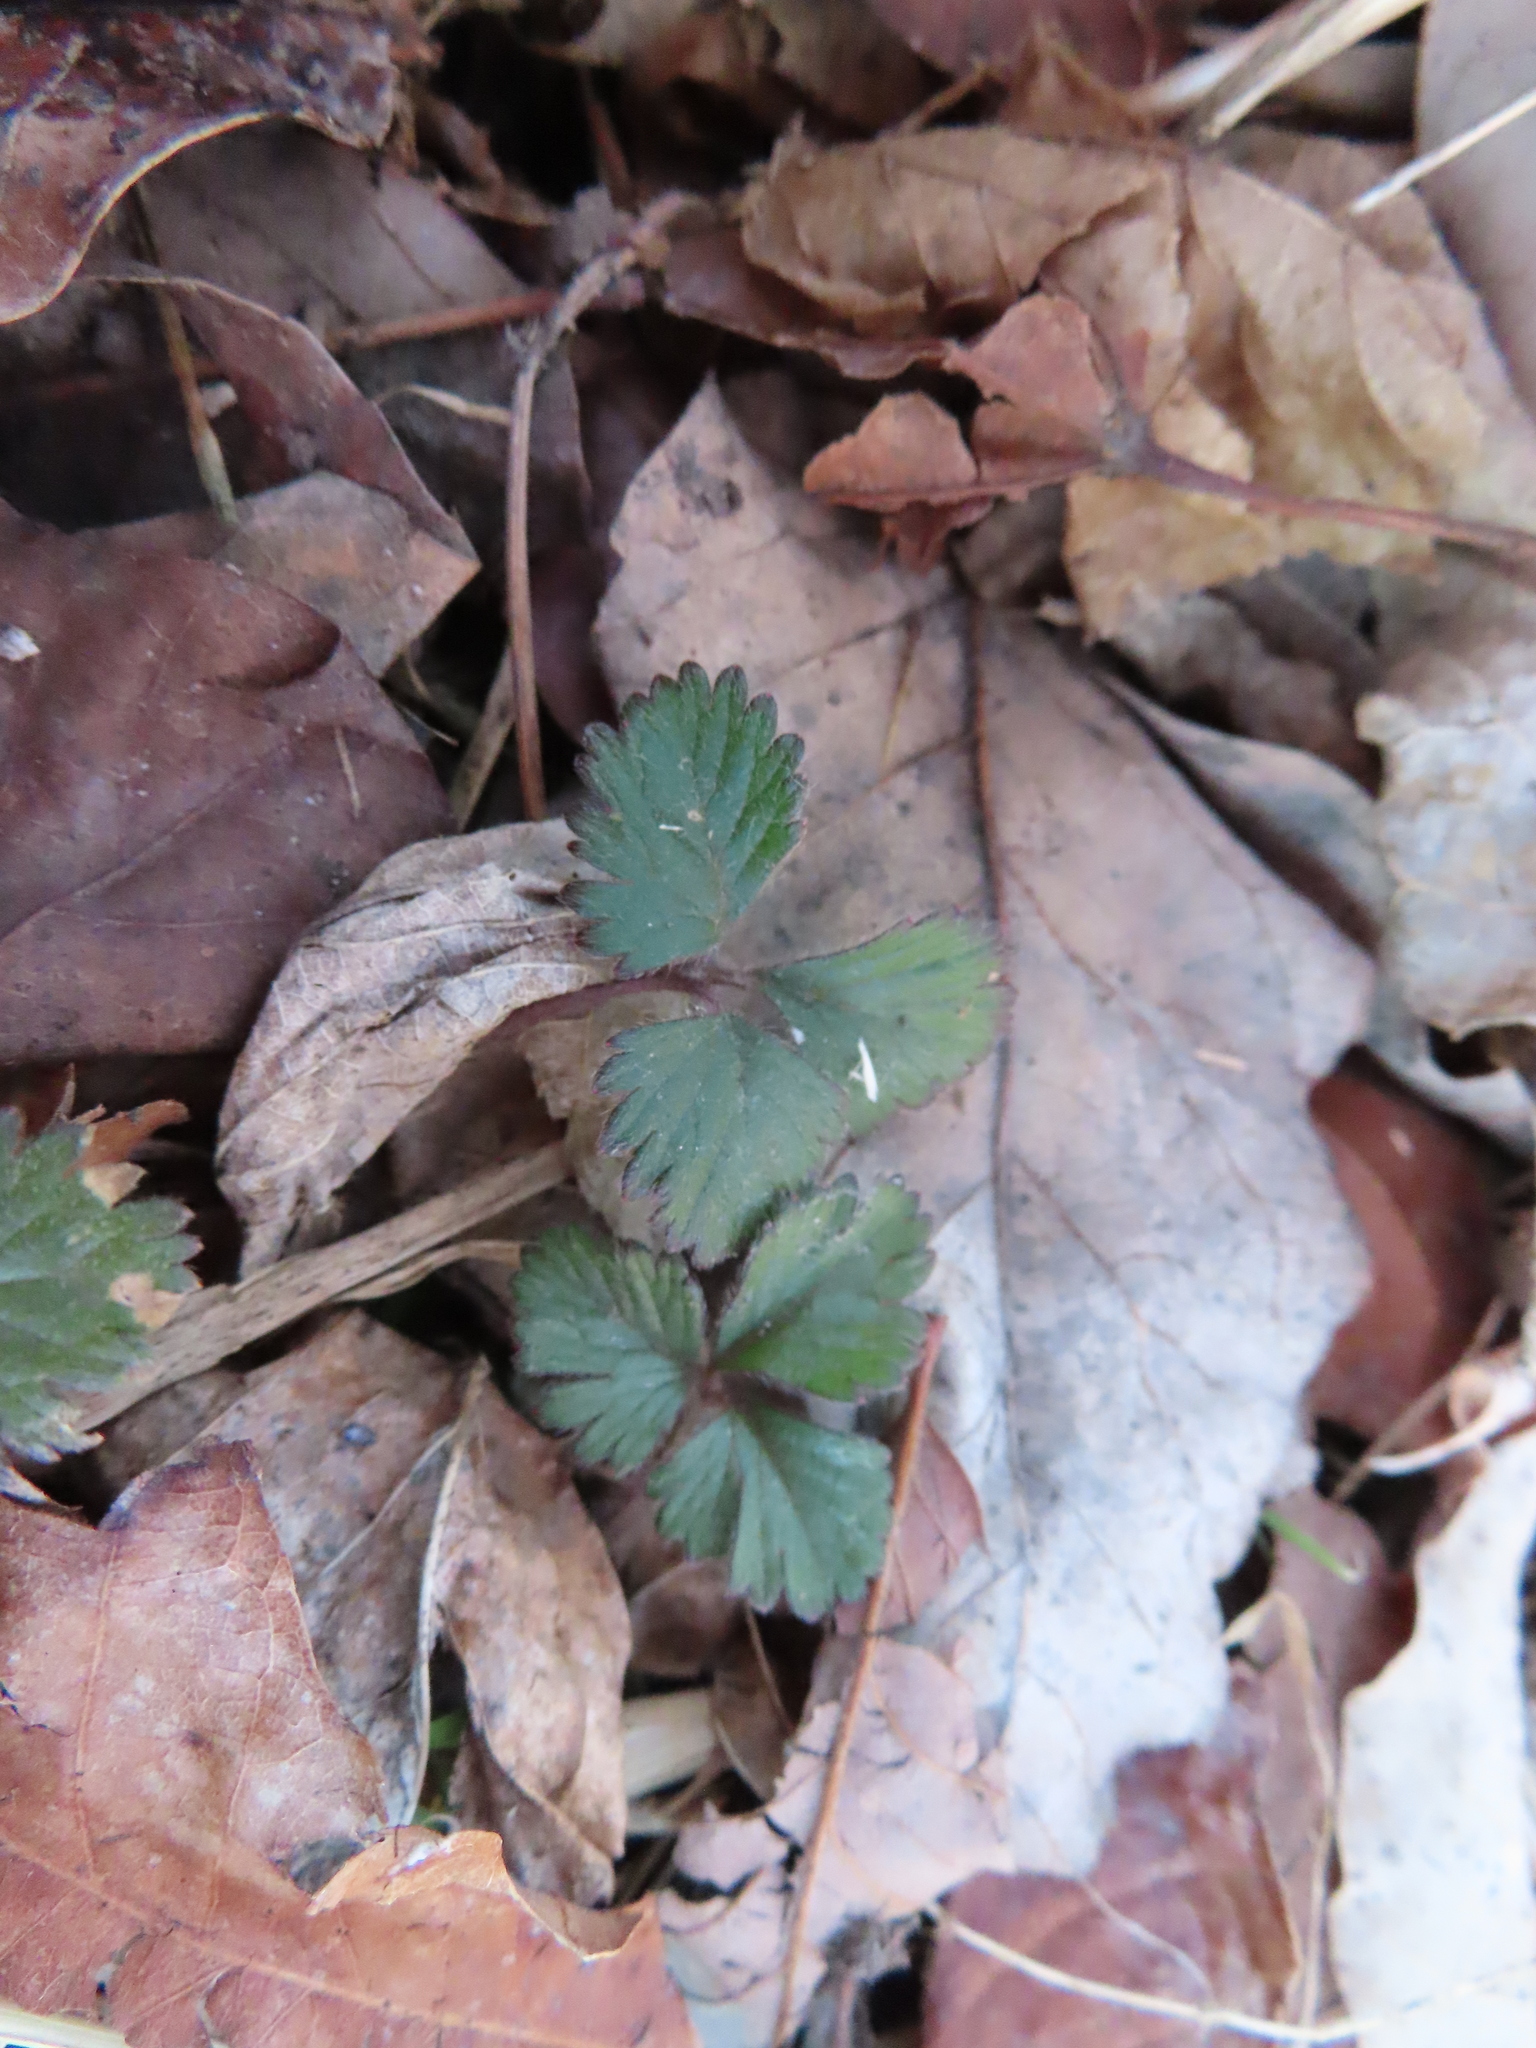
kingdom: Plantae
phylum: Tracheophyta
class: Magnoliopsida
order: Rosales
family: Rosaceae
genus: Potentilla
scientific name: Potentilla indica
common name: Yellow-flowered strawberry
